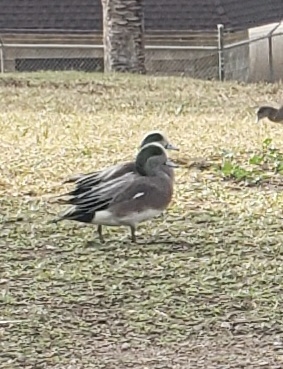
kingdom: Animalia
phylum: Chordata
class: Aves
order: Anseriformes
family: Anatidae
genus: Mareca
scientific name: Mareca americana
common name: American wigeon
